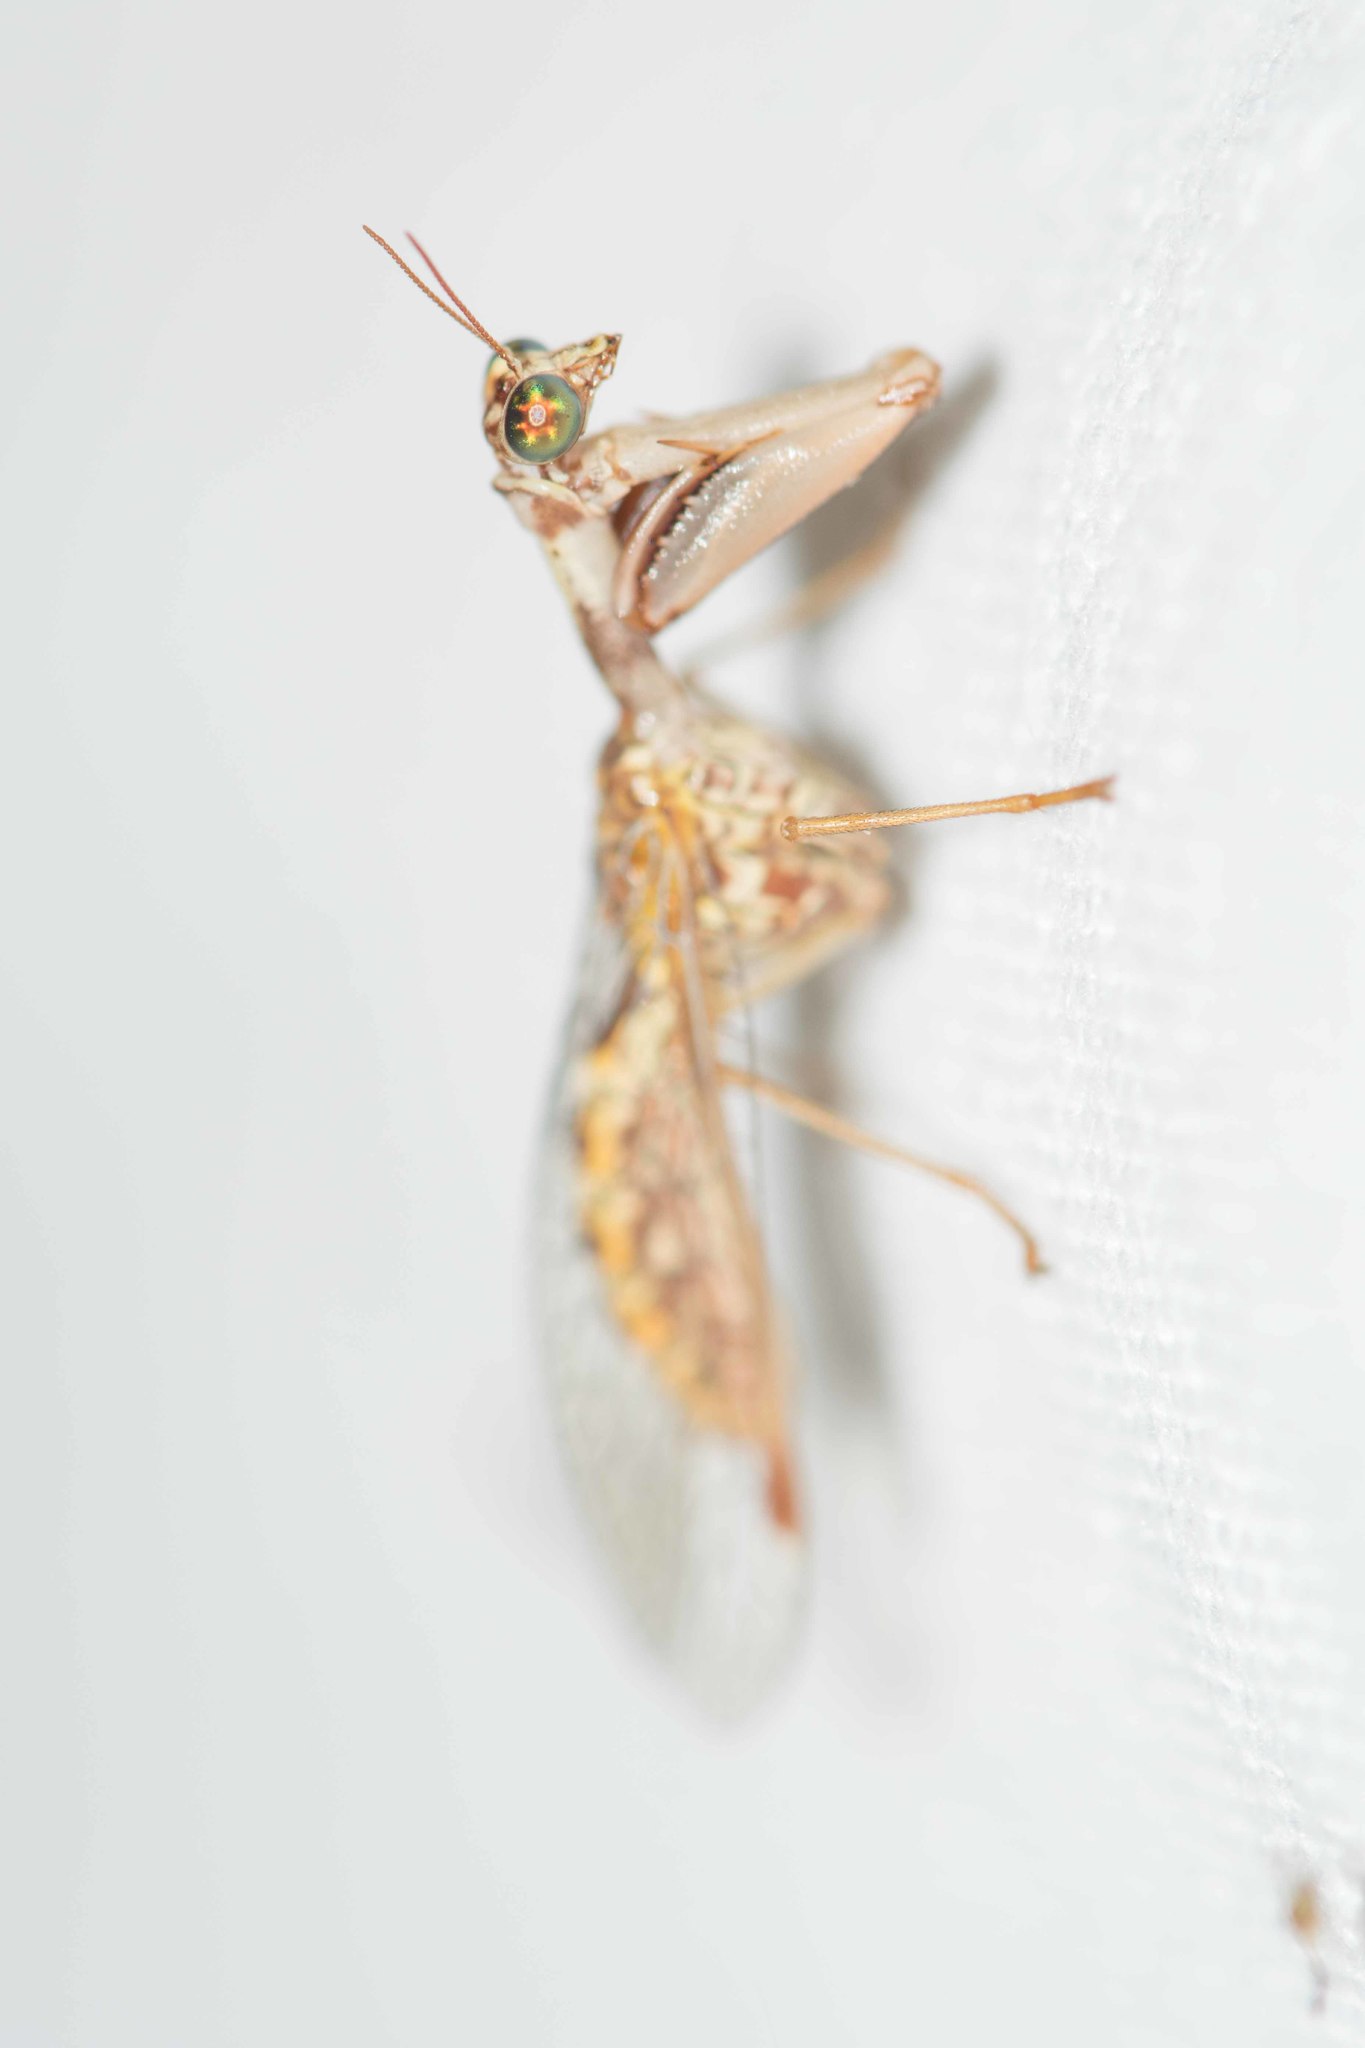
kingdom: Animalia
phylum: Arthropoda
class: Insecta
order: Neuroptera
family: Mantispidae
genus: Mantispa
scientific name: Mantispa styriaca
